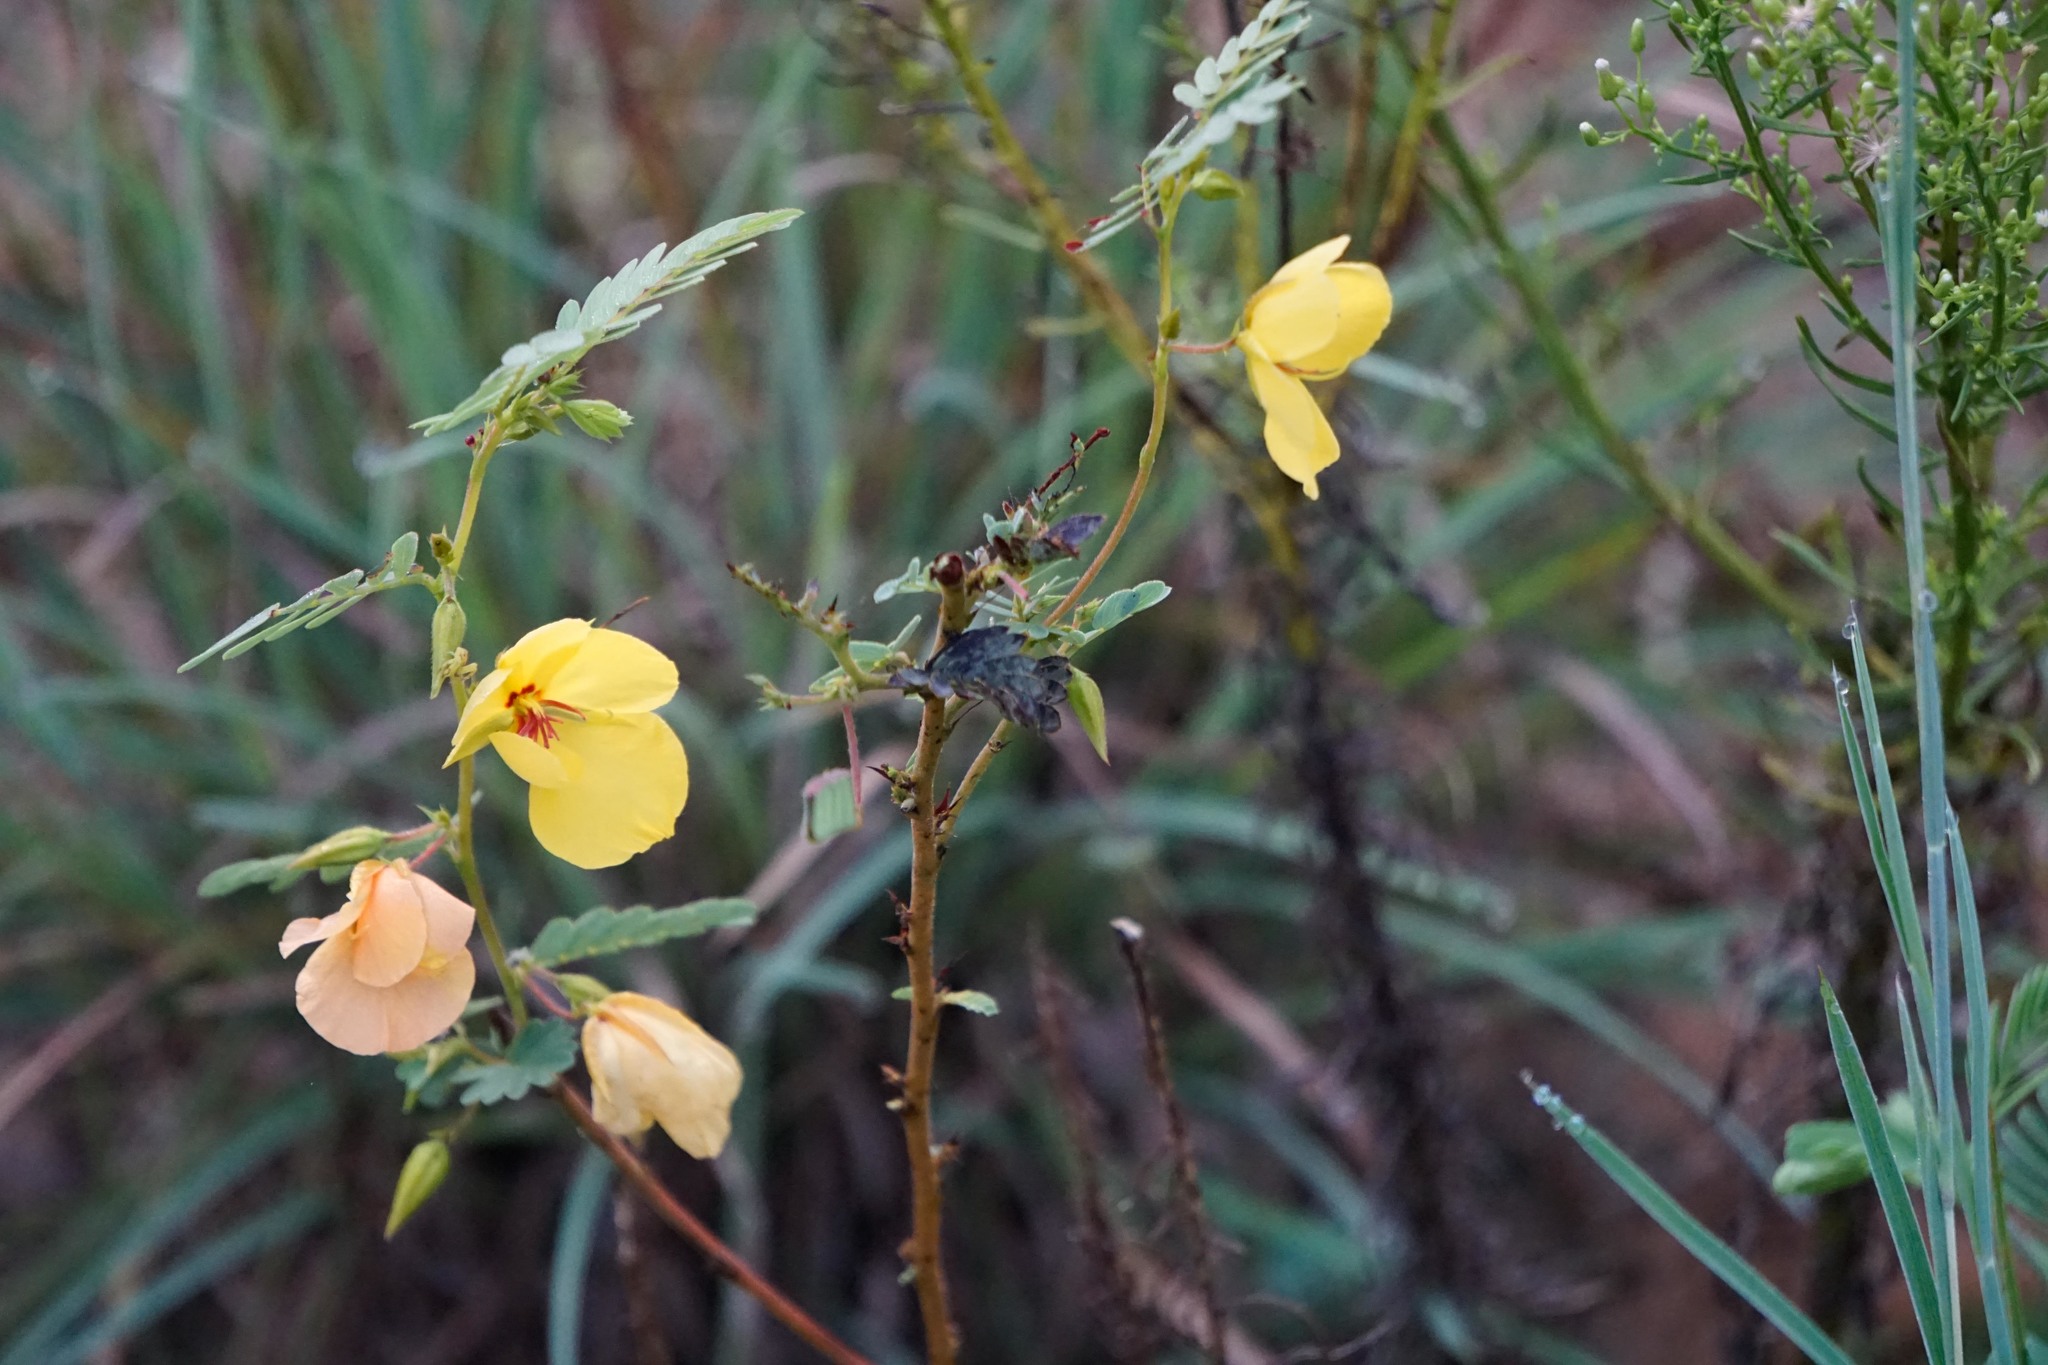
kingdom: Plantae
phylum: Tracheophyta
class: Magnoliopsida
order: Fabales
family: Fabaceae
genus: Chamaecrista
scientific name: Chamaecrista fasciculata
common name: Golden cassia
